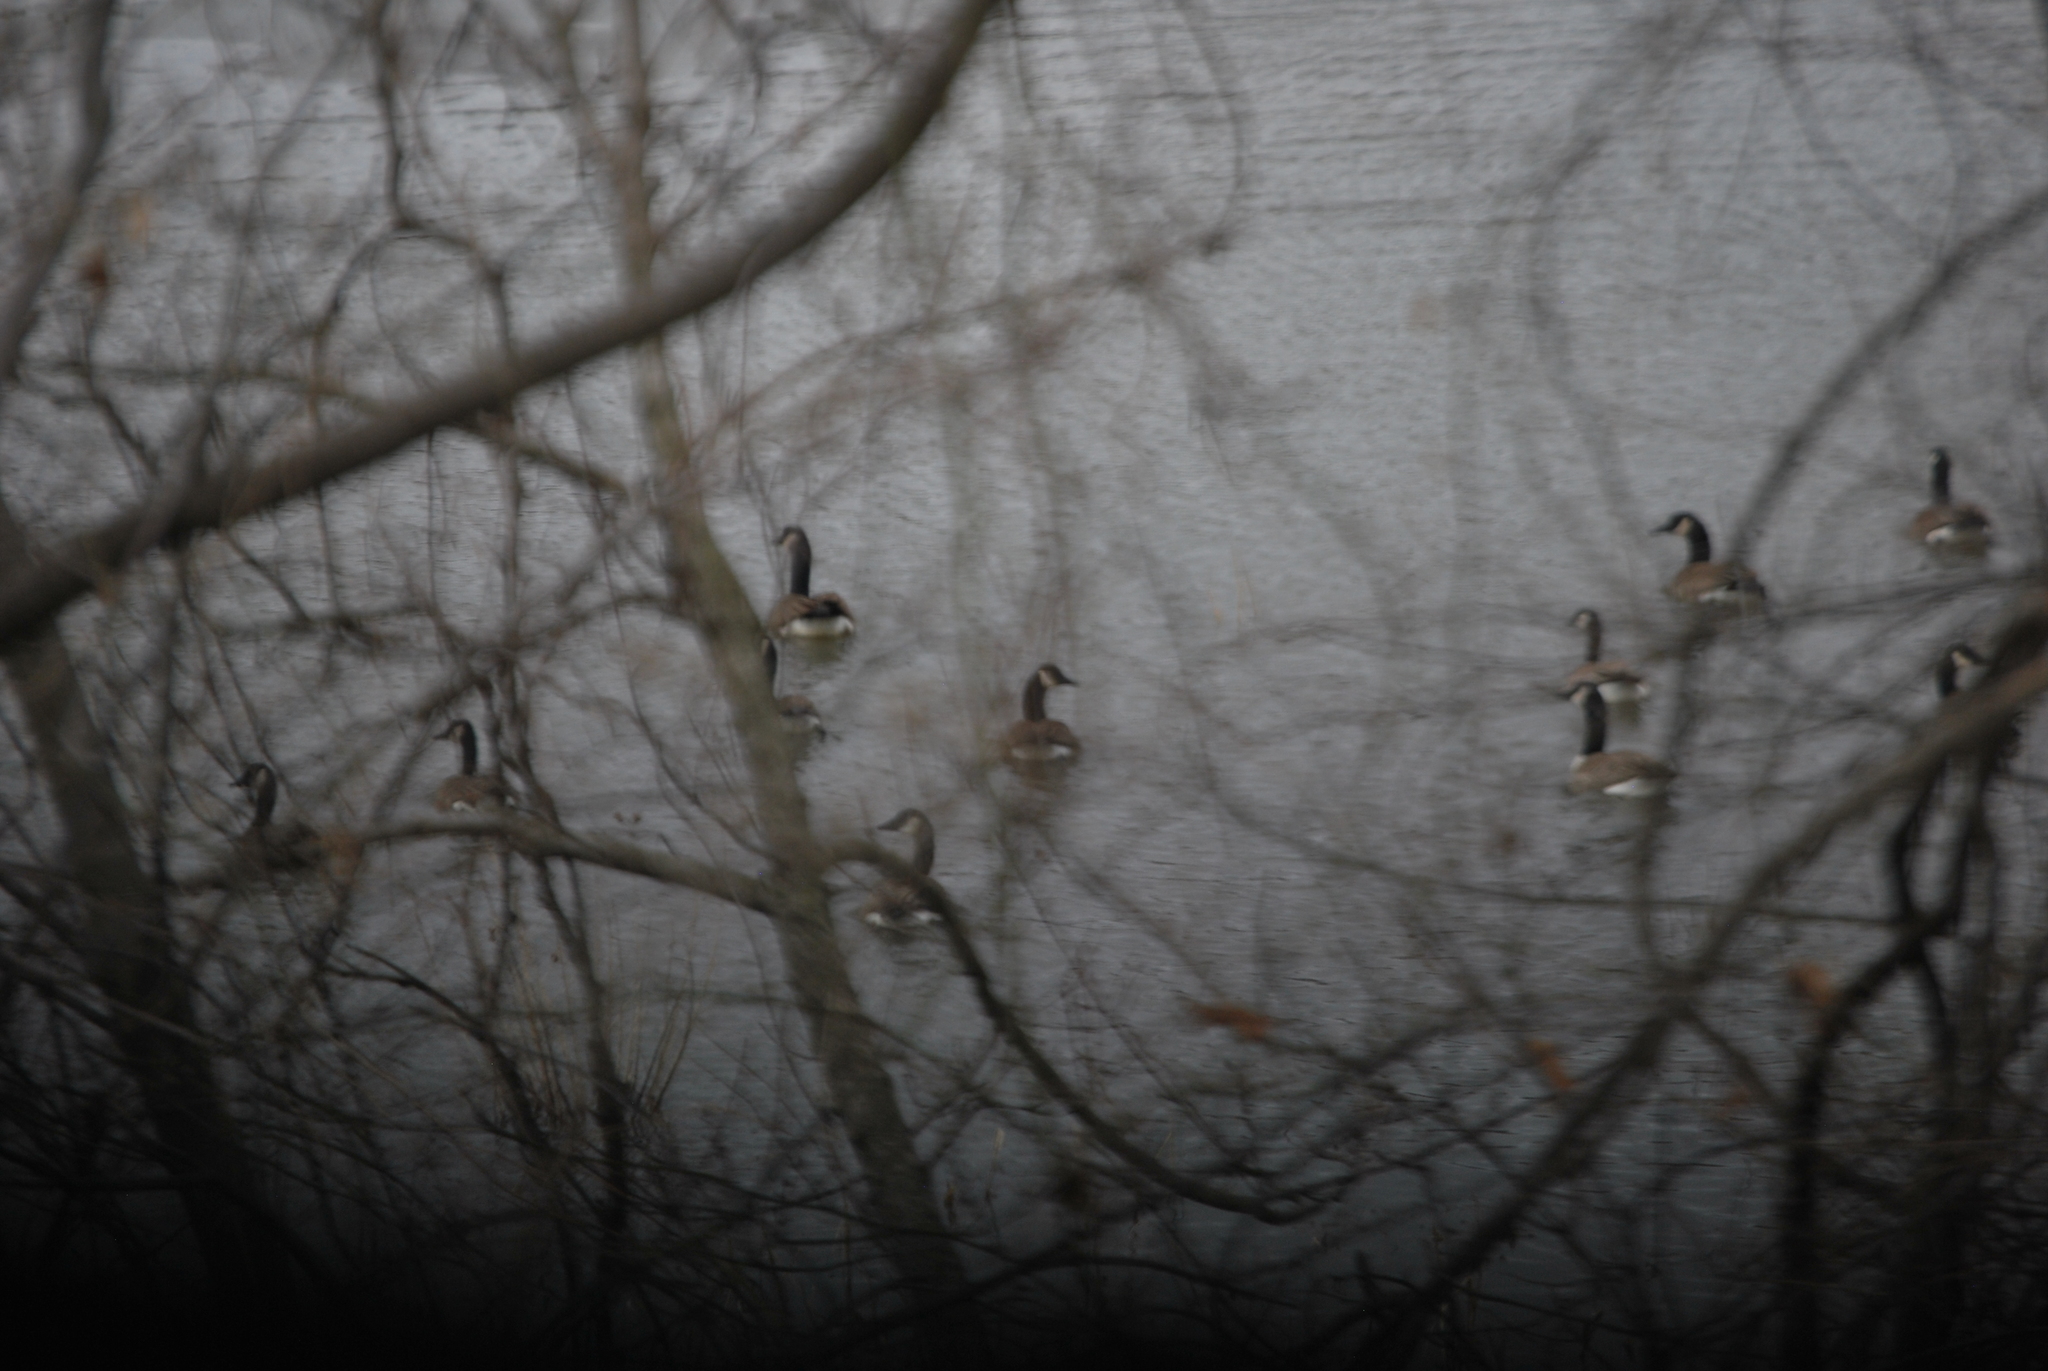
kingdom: Animalia
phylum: Chordata
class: Aves
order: Anseriformes
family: Anatidae
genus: Branta
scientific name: Branta canadensis
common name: Canada goose
